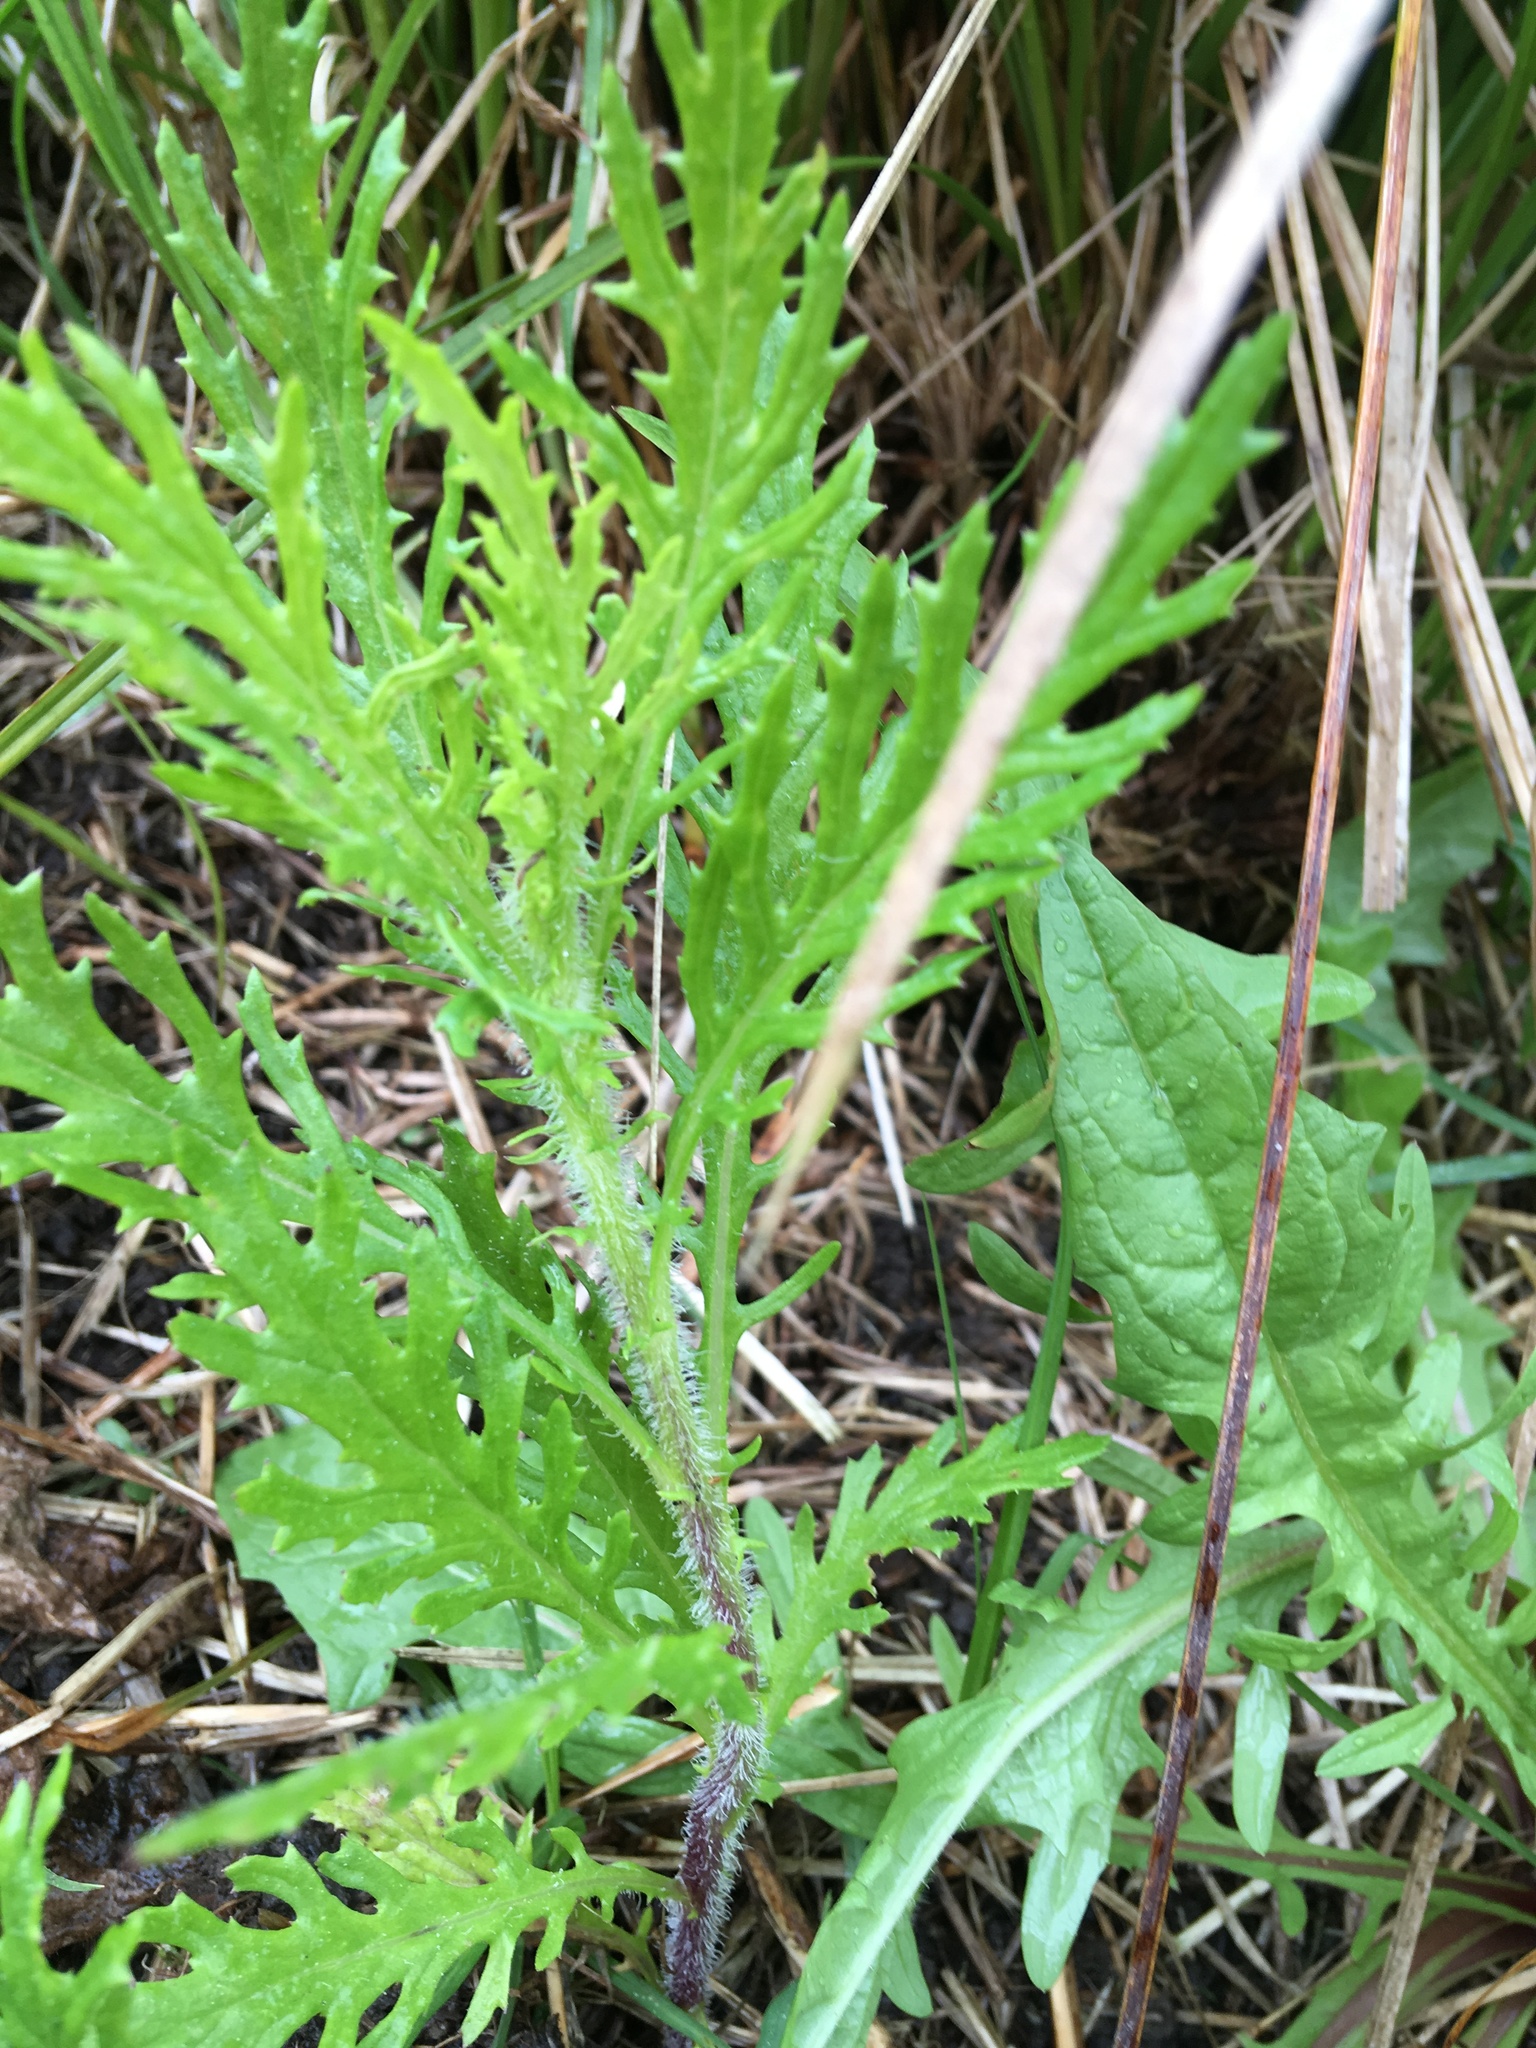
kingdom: Plantae
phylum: Tracheophyta
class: Magnoliopsida
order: Asterales
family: Asteraceae
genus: Senecio
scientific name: Senecio esleri
